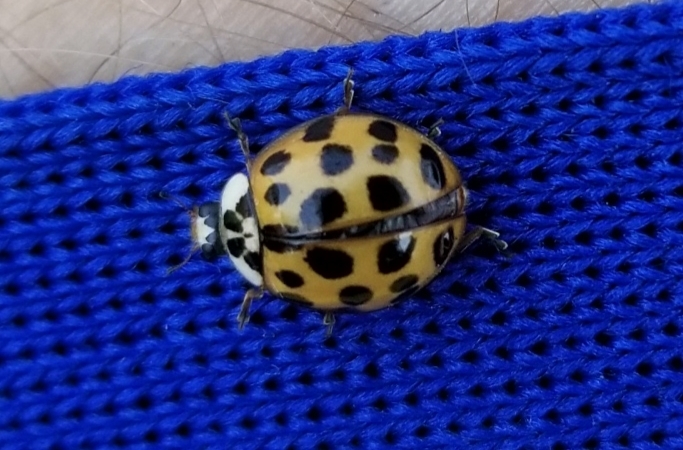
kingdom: Animalia
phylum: Arthropoda
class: Insecta
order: Coleoptera
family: Coccinellidae
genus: Harmonia
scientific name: Harmonia axyridis
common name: Harlequin ladybird
